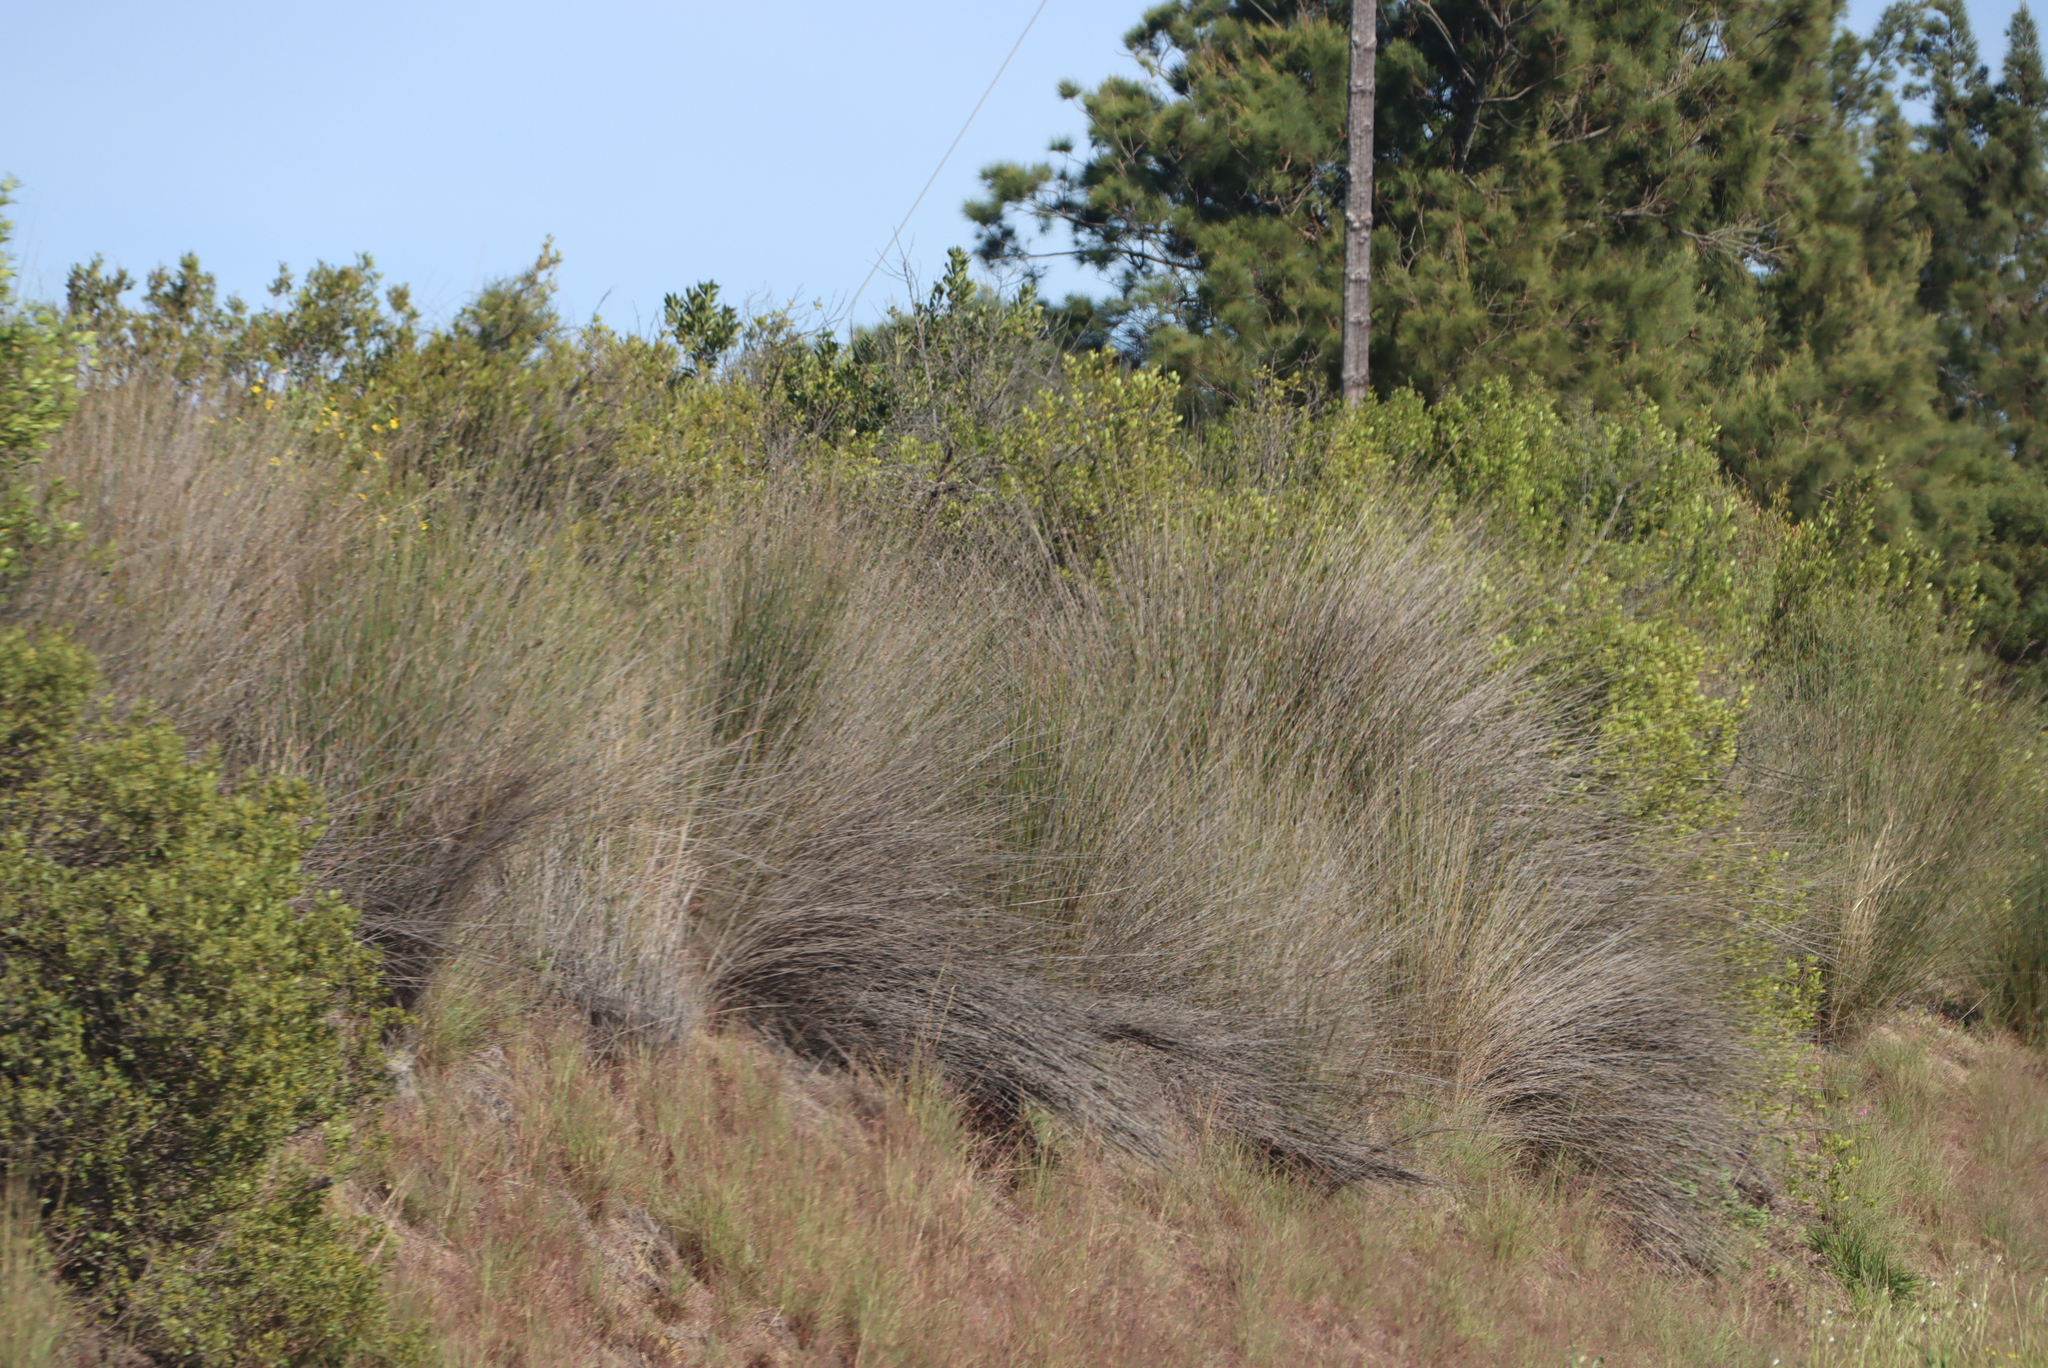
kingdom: Plantae
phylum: Tracheophyta
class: Liliopsida
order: Poales
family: Restionaceae
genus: Thamnochortus
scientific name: Thamnochortus insignis
